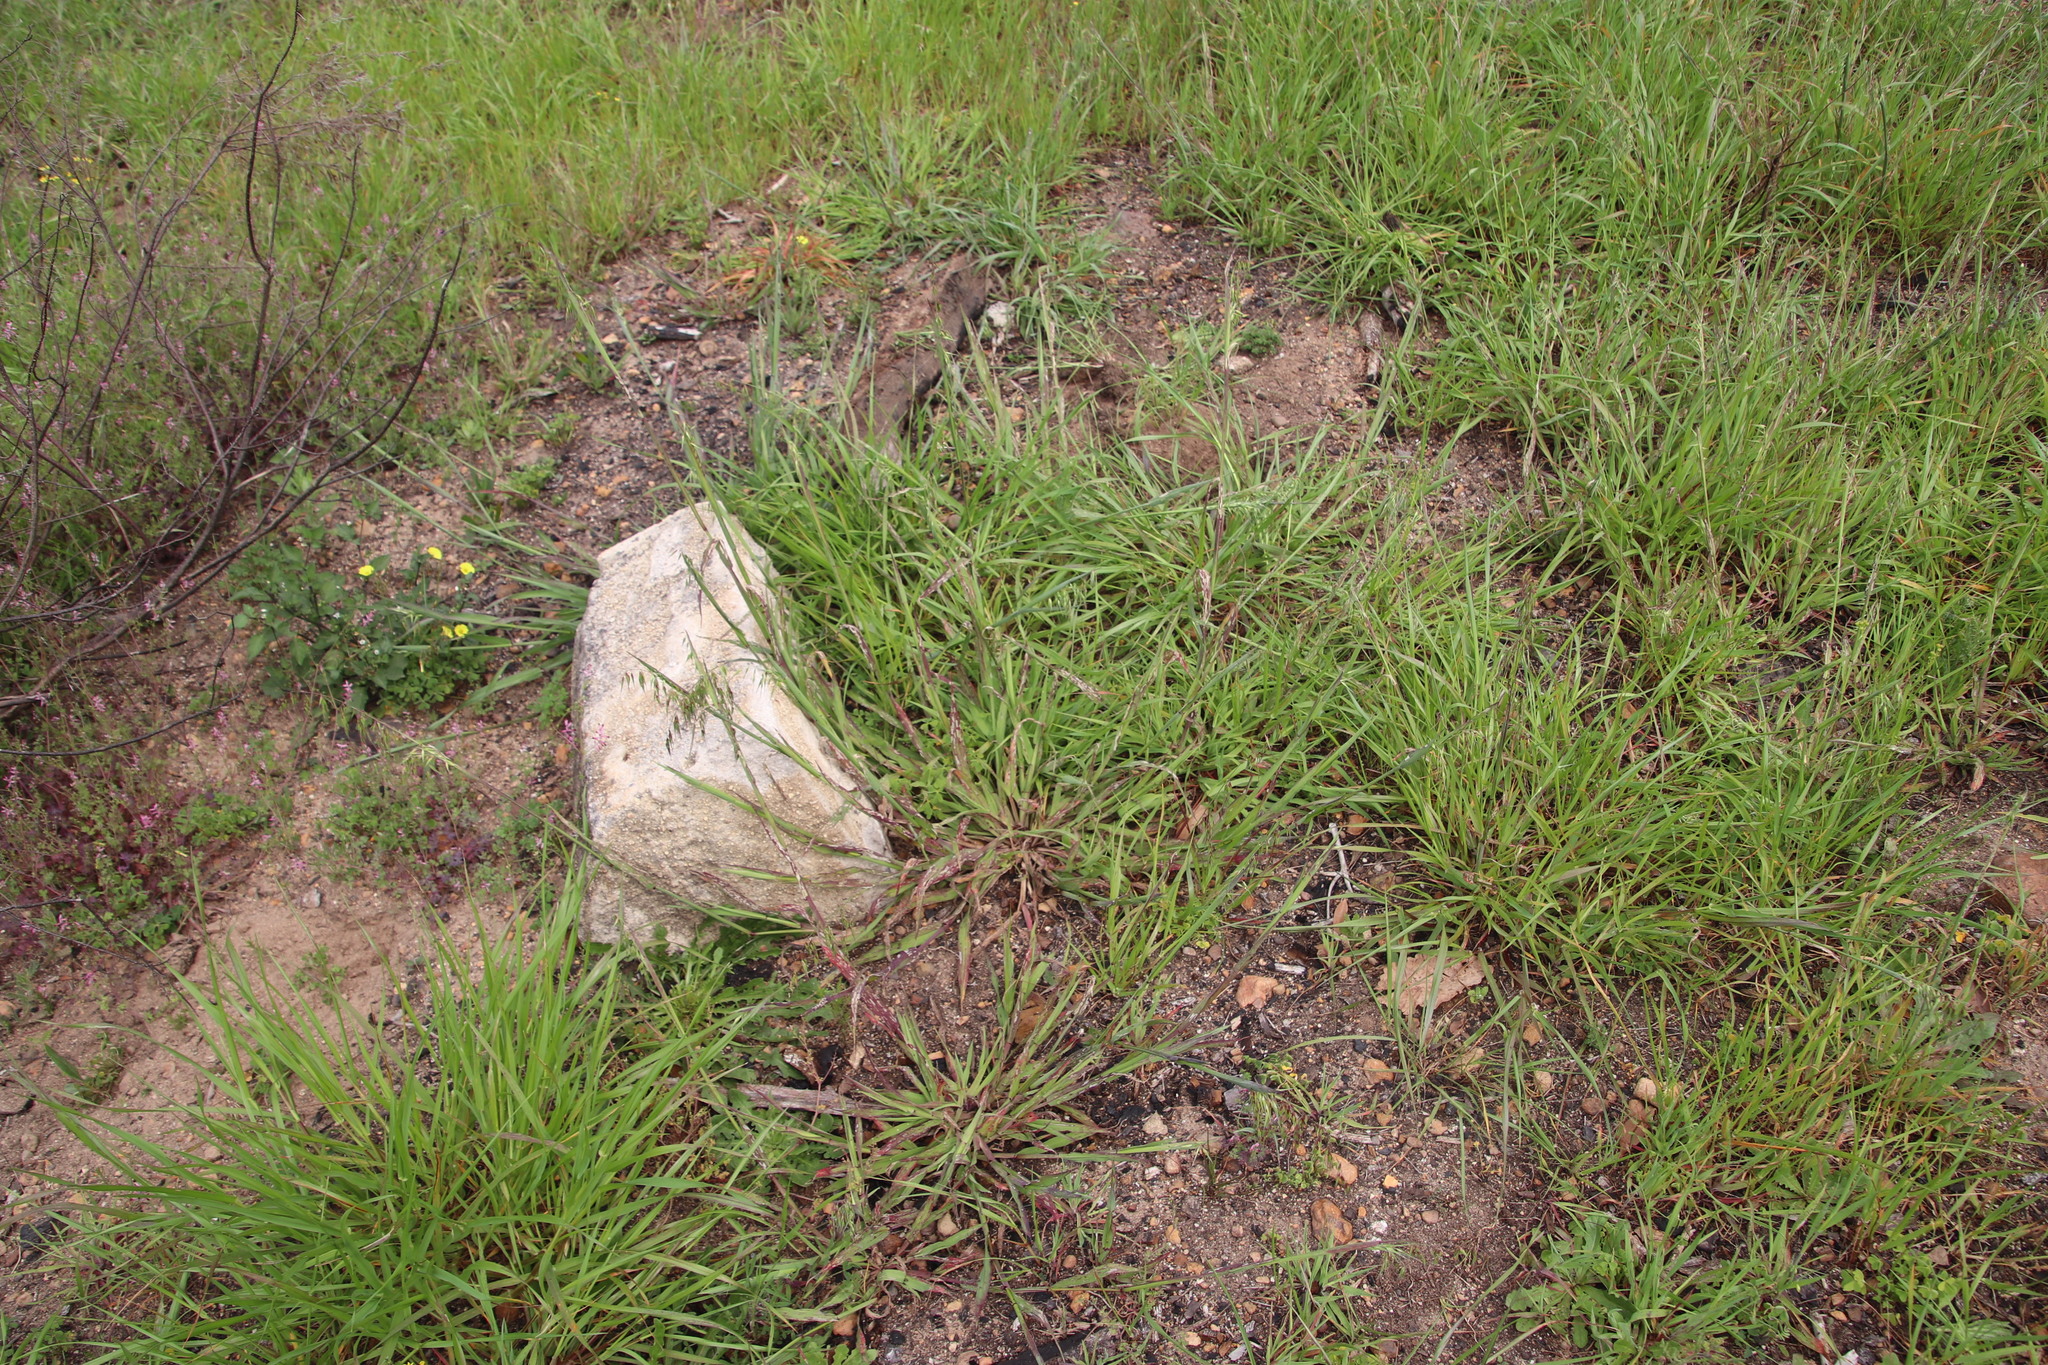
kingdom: Plantae
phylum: Tracheophyta
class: Liliopsida
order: Poales
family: Poaceae
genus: Ehrharta
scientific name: Ehrharta calycina
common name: Perennial veldtgrass
